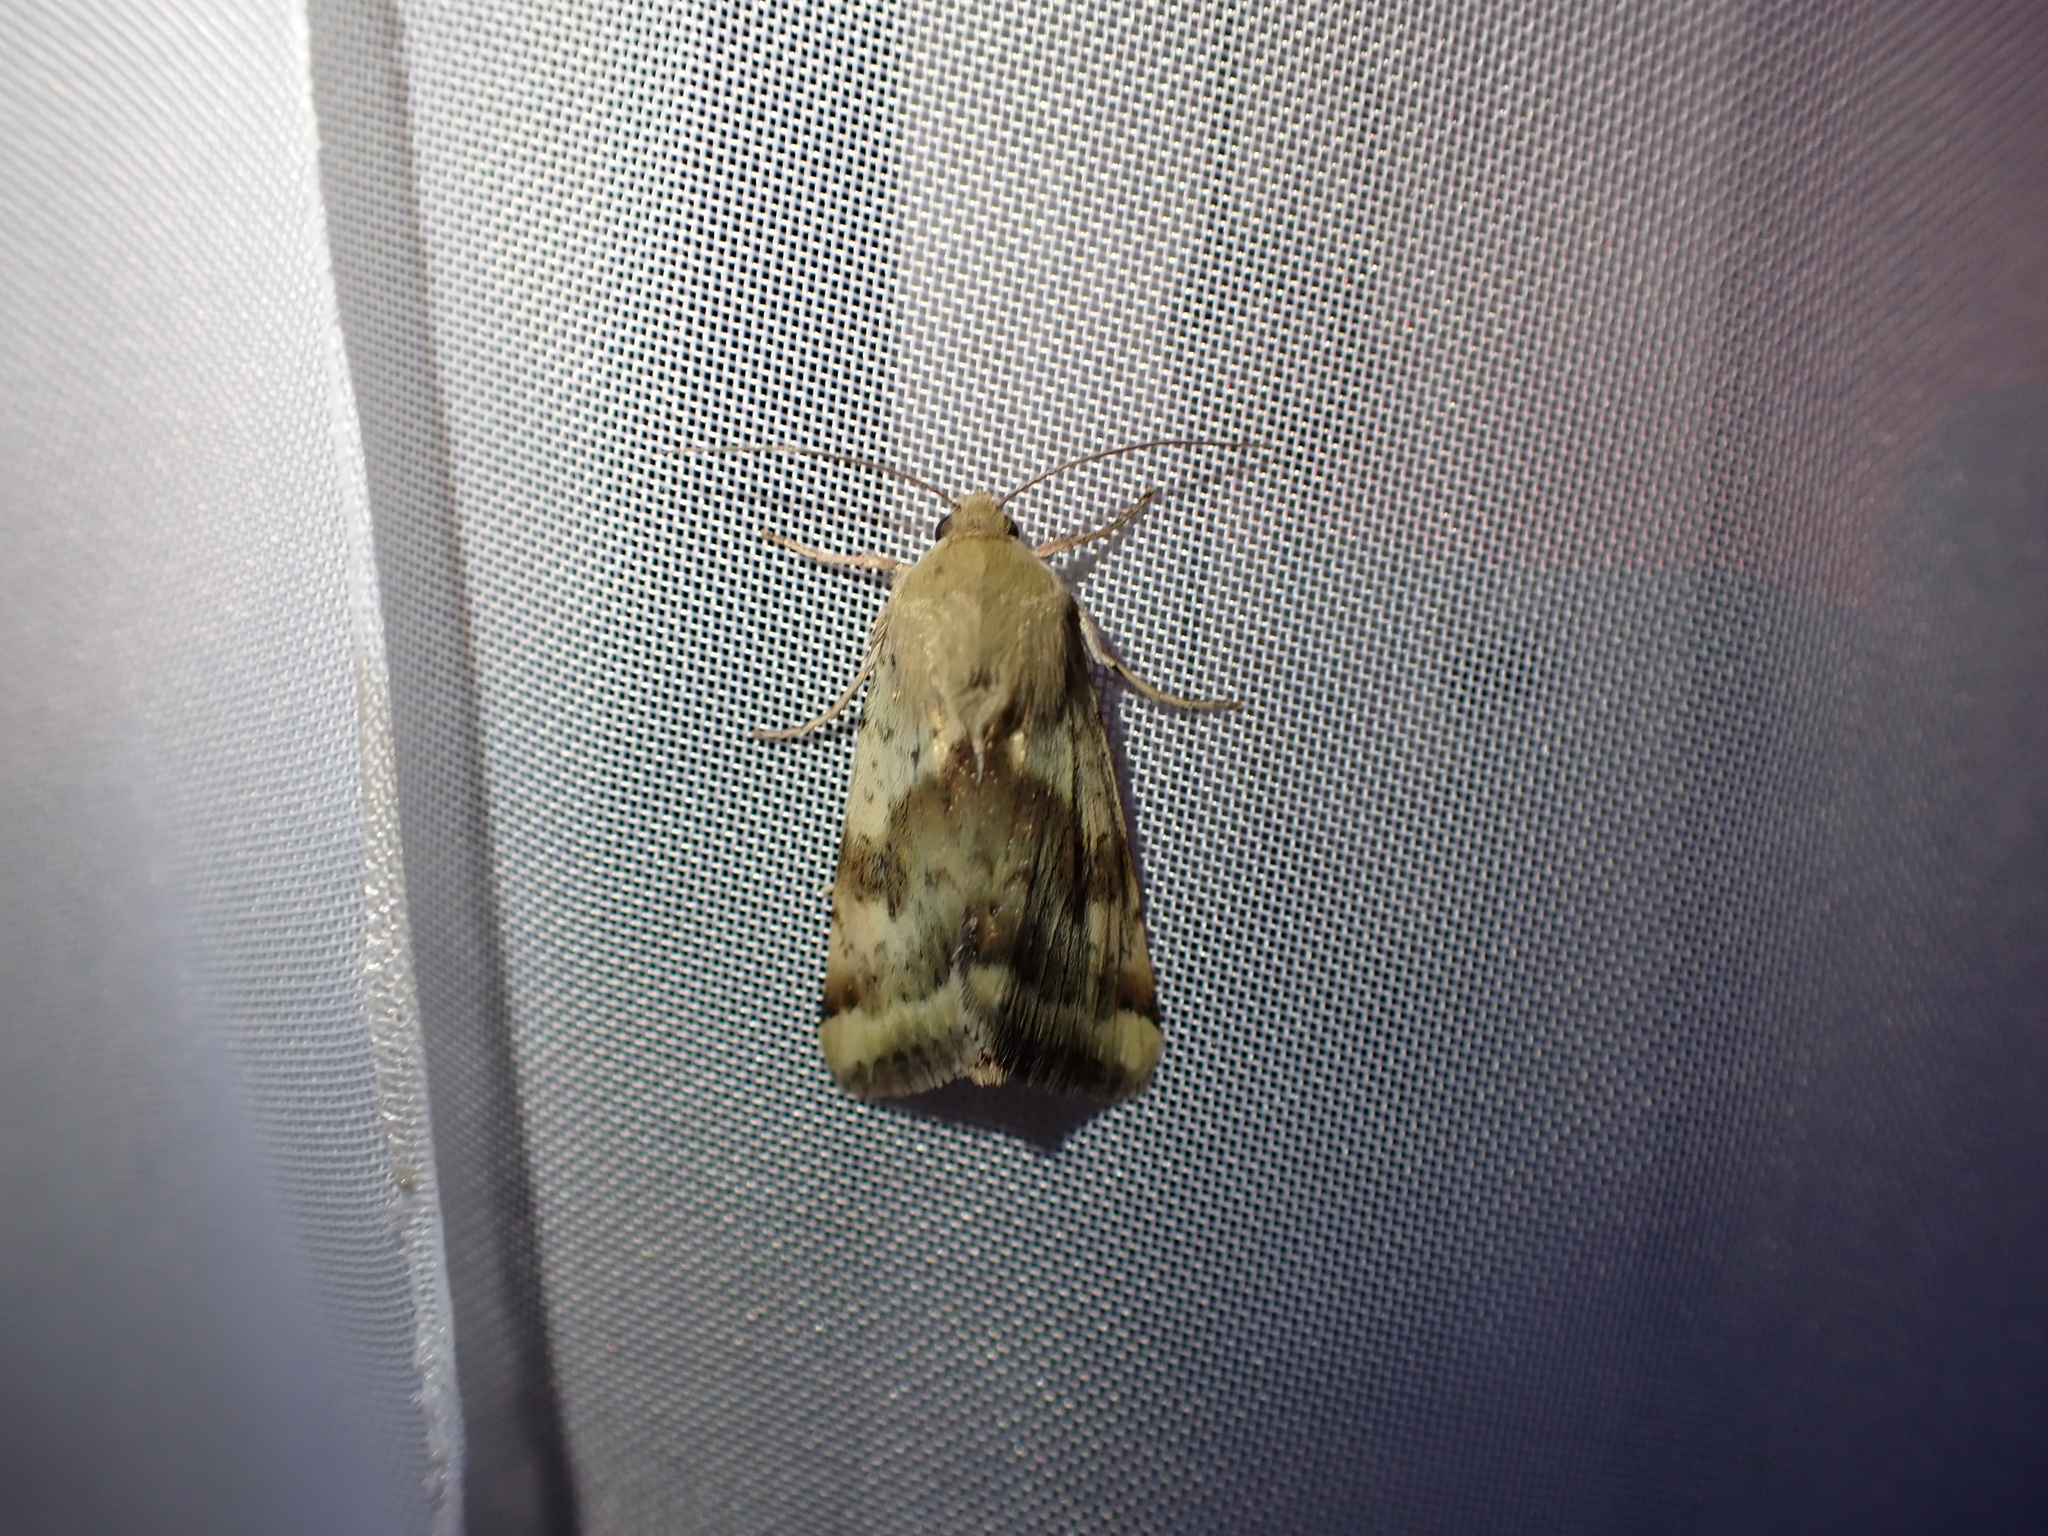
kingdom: Animalia
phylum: Arthropoda
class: Insecta
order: Lepidoptera
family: Noctuidae
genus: Heliothis
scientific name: Heliothis adaucta
